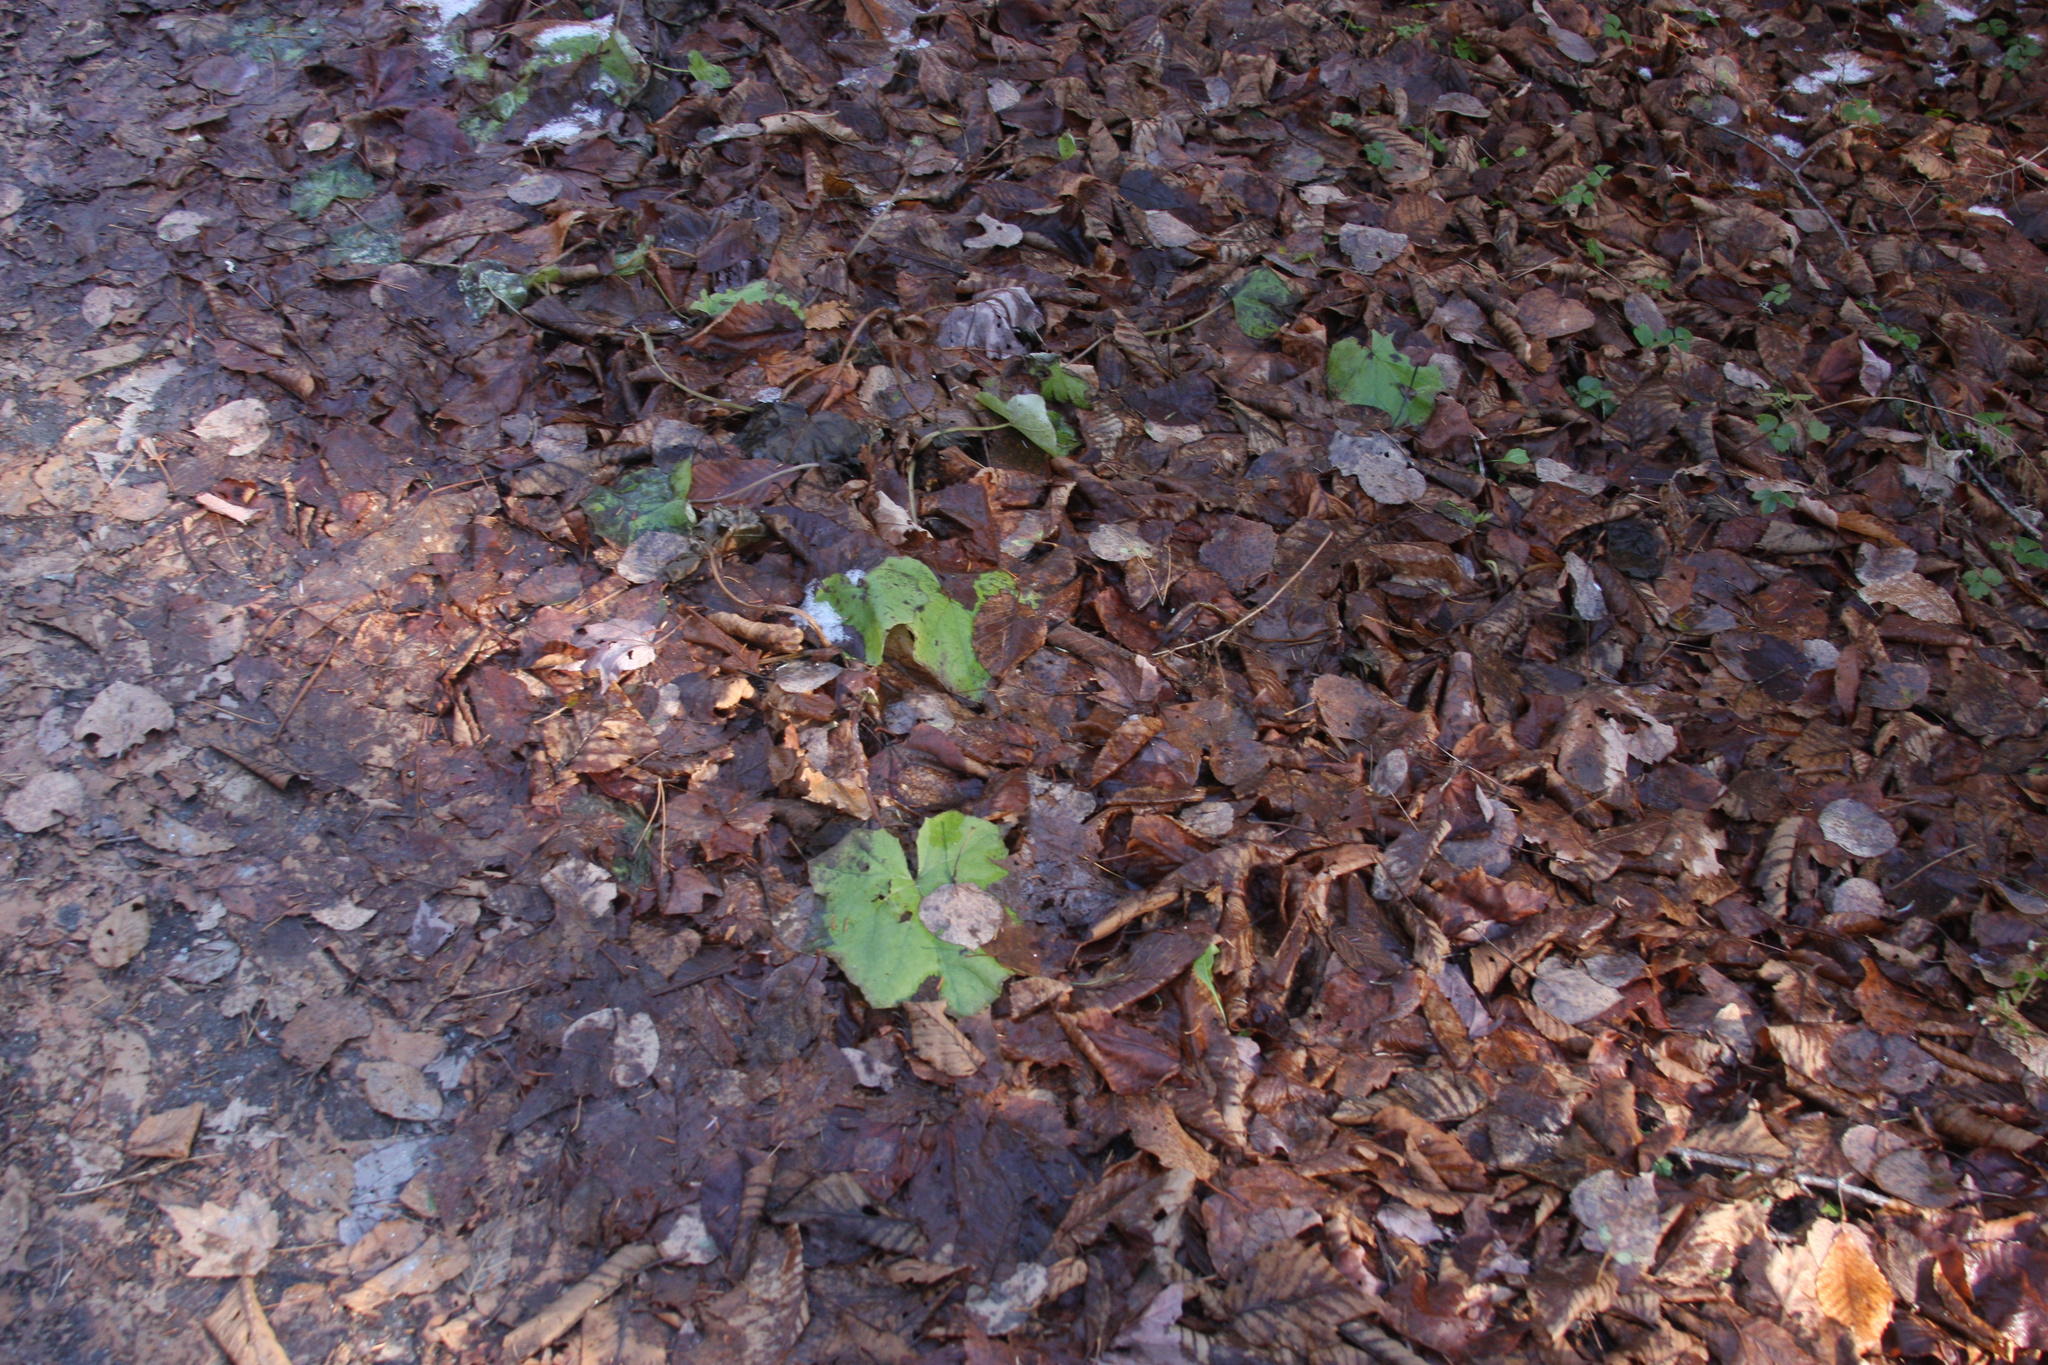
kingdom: Plantae
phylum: Tracheophyta
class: Magnoliopsida
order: Asterales
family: Asteraceae
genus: Tussilago
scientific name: Tussilago farfara
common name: Coltsfoot
